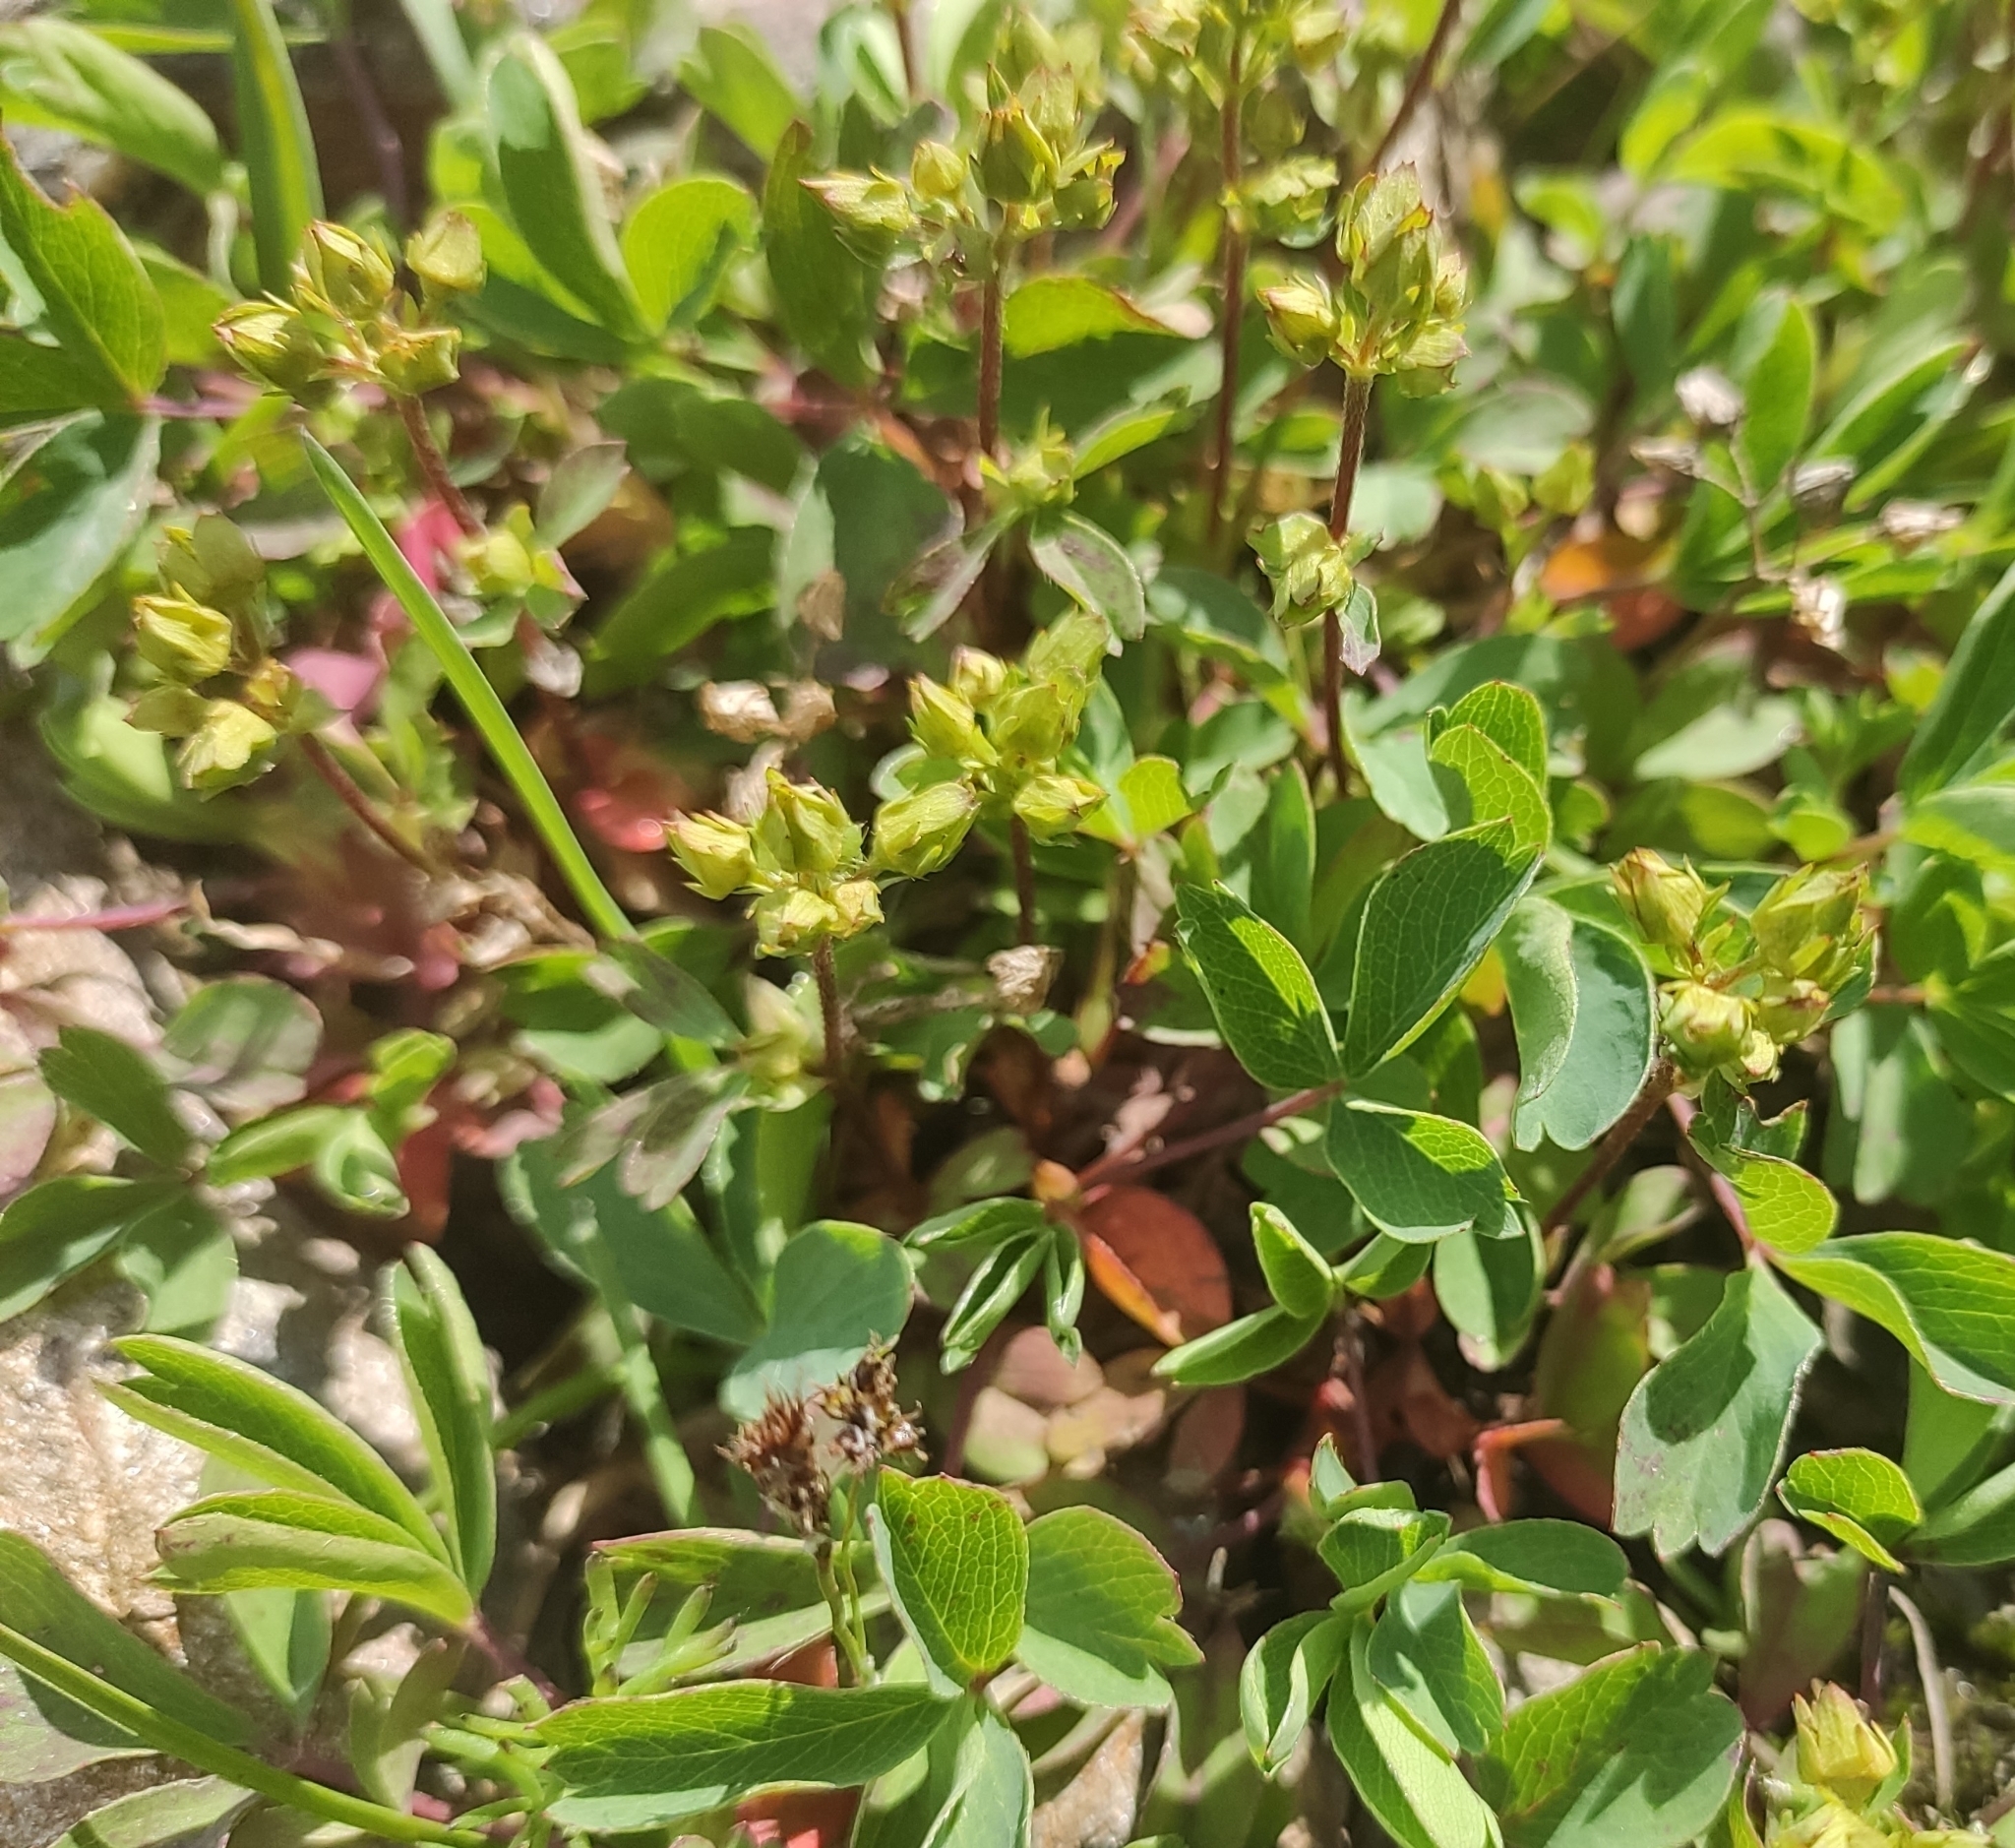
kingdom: Plantae
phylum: Tracheophyta
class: Magnoliopsida
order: Rosales
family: Rosaceae
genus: Sibbaldia
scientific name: Sibbaldia parviflora
